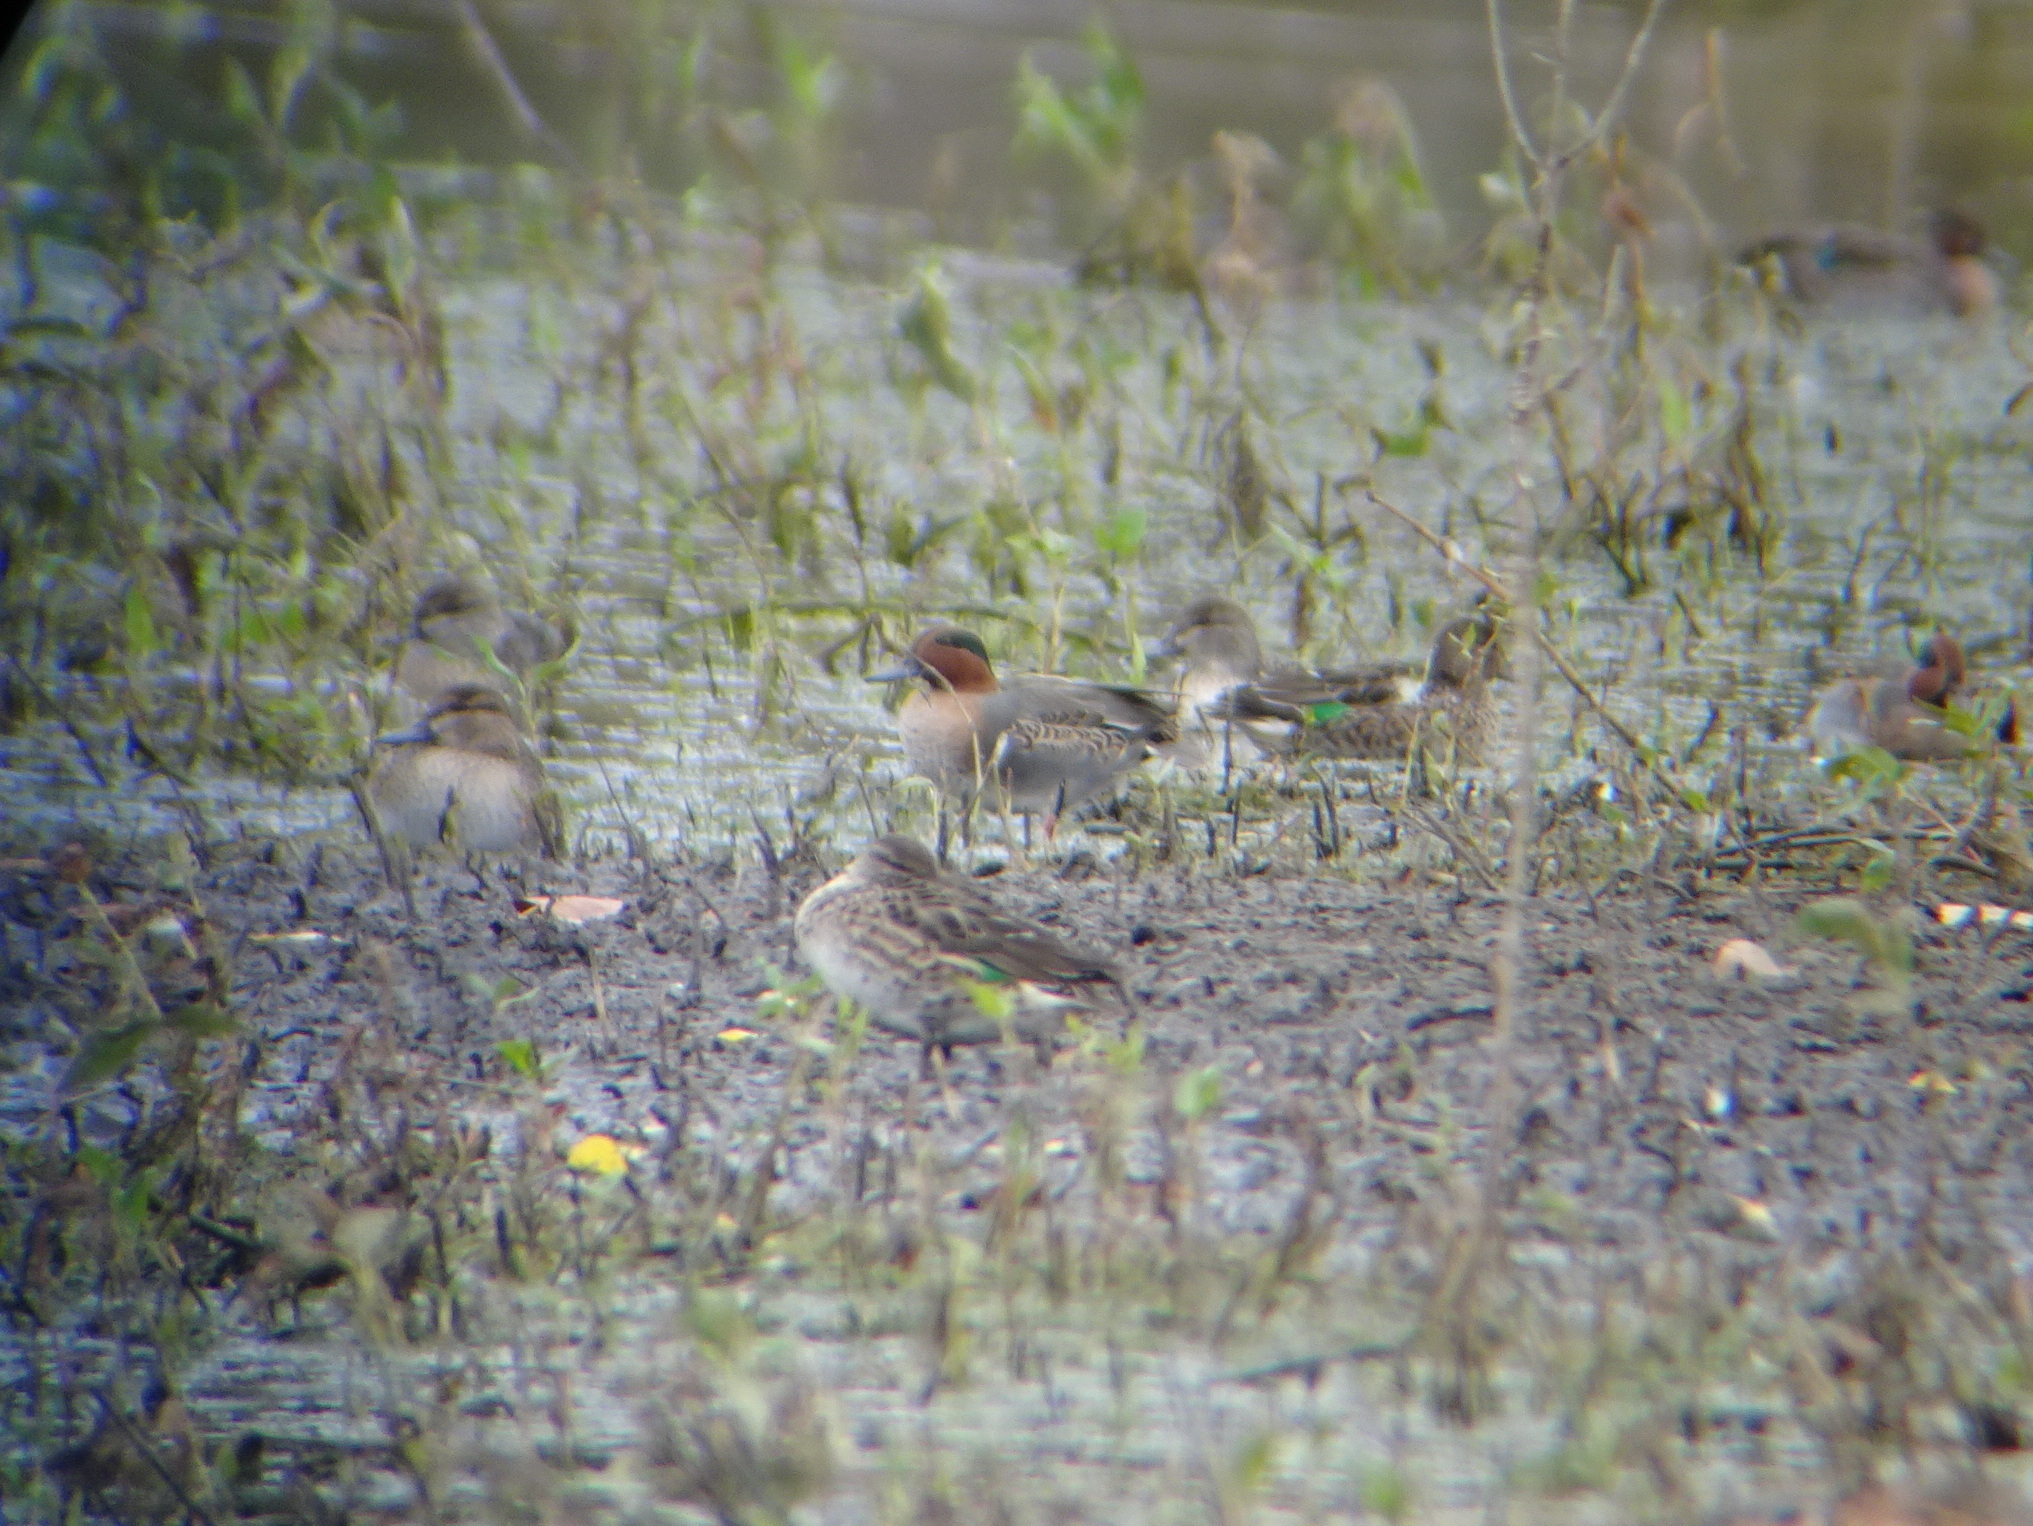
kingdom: Animalia
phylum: Chordata
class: Aves
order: Anseriformes
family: Anatidae
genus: Anas
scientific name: Anas crecca
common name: Eurasian teal
